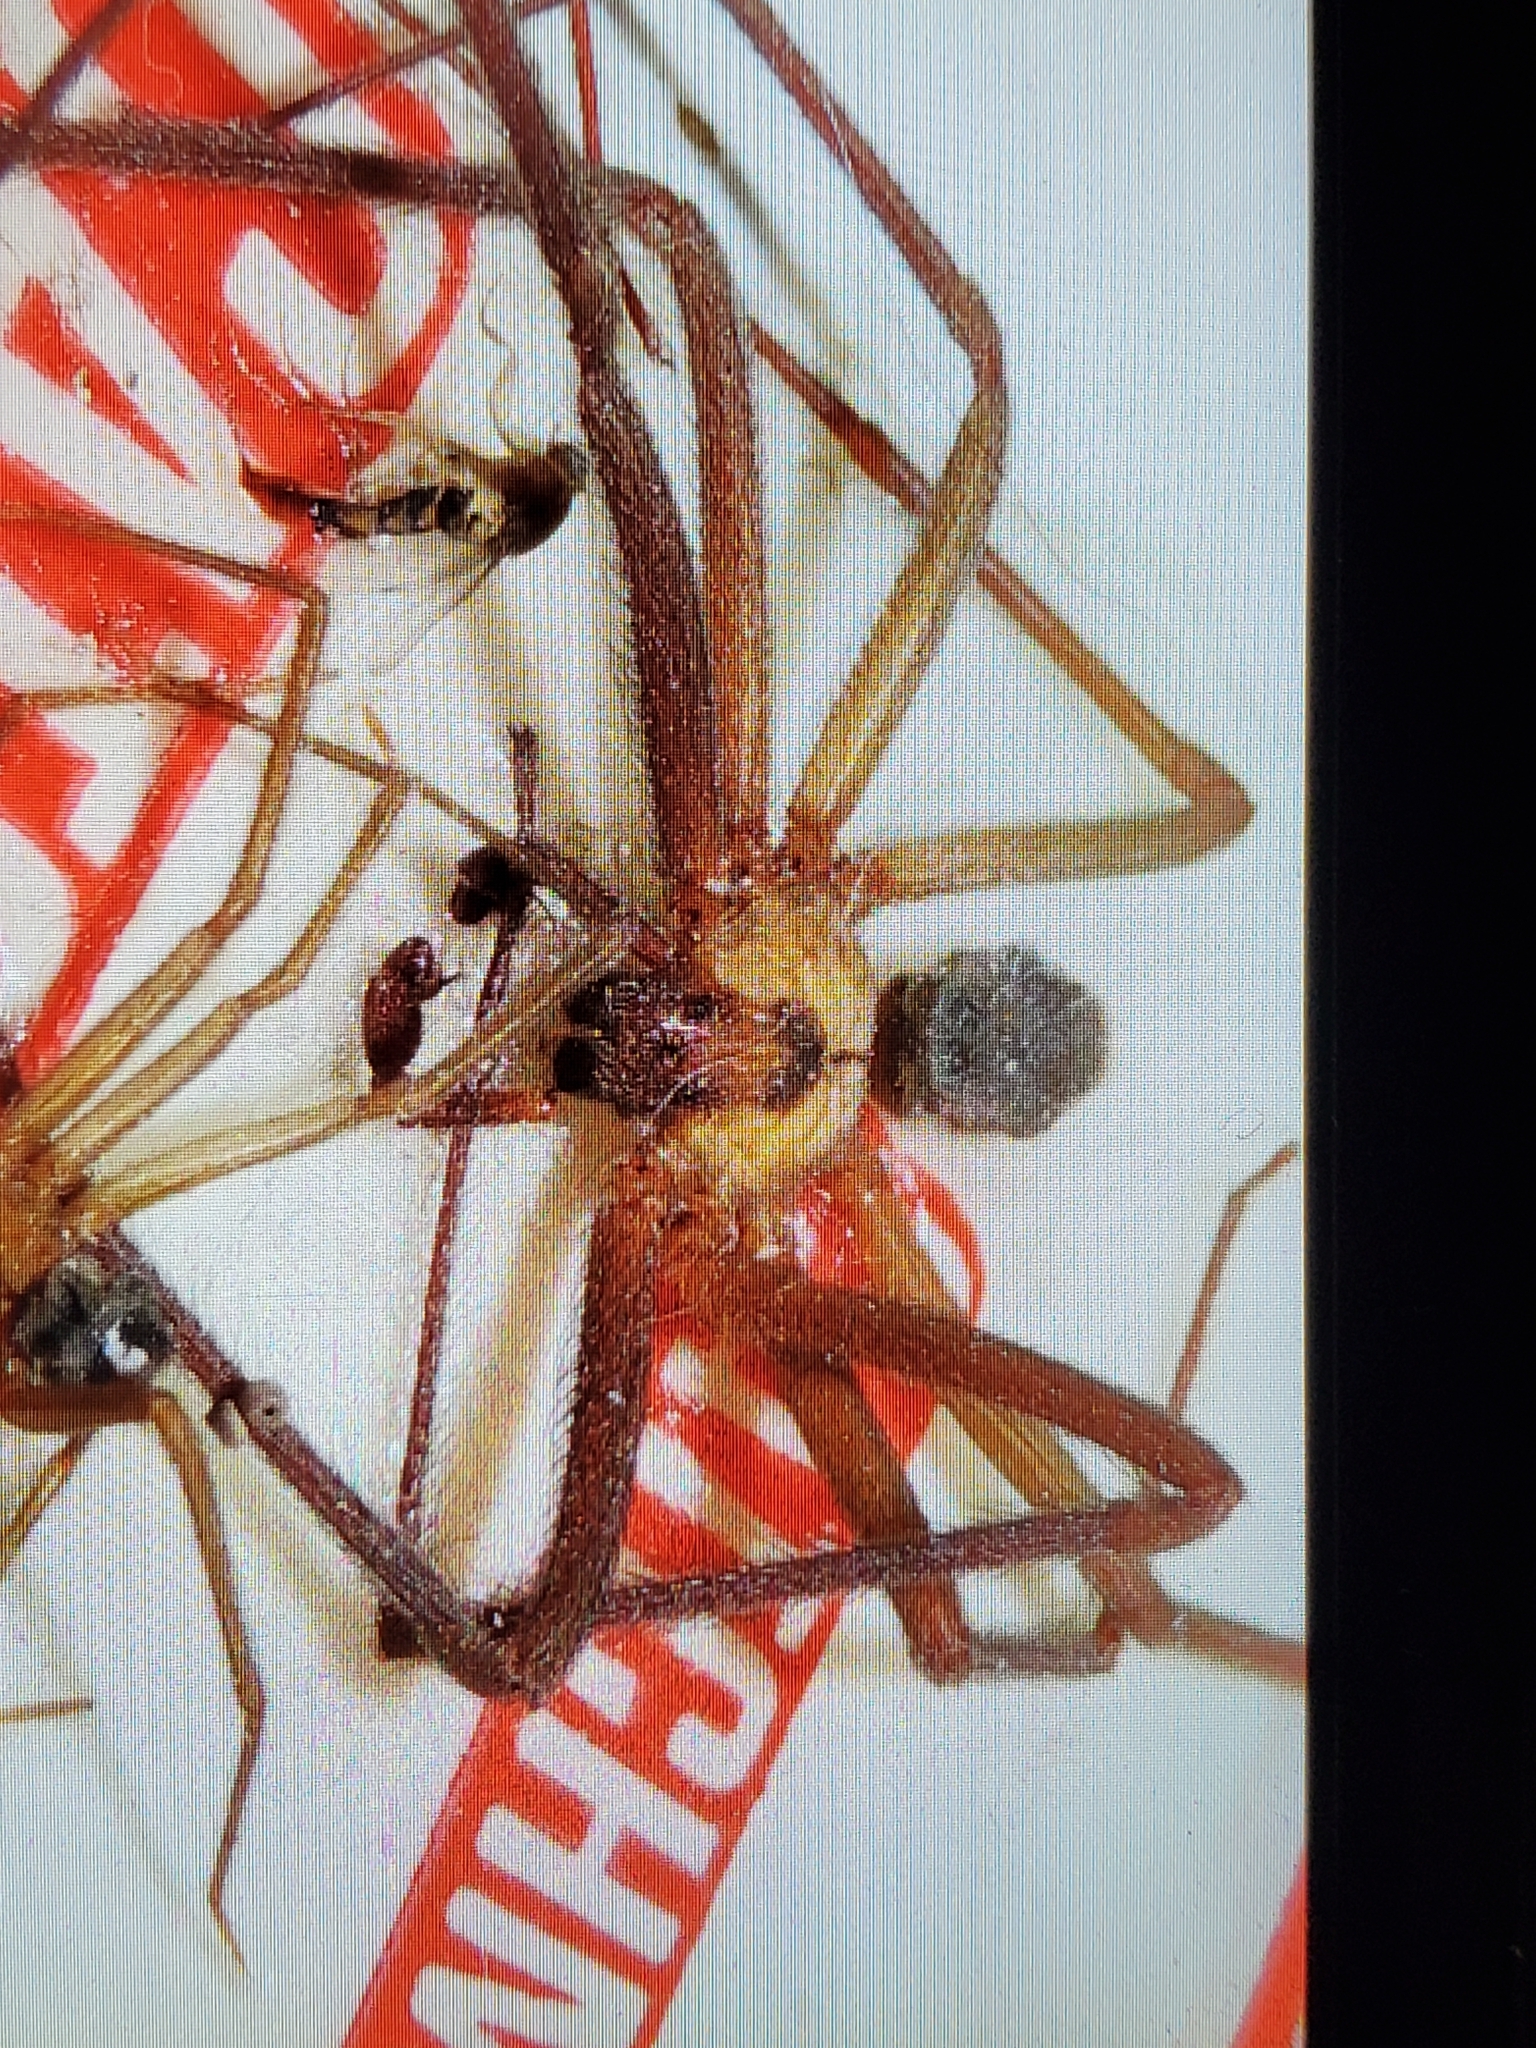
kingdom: Animalia
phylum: Arthropoda
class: Arachnida
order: Araneae
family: Sicariidae
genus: Loxosceles
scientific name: Loxosceles reclusa
